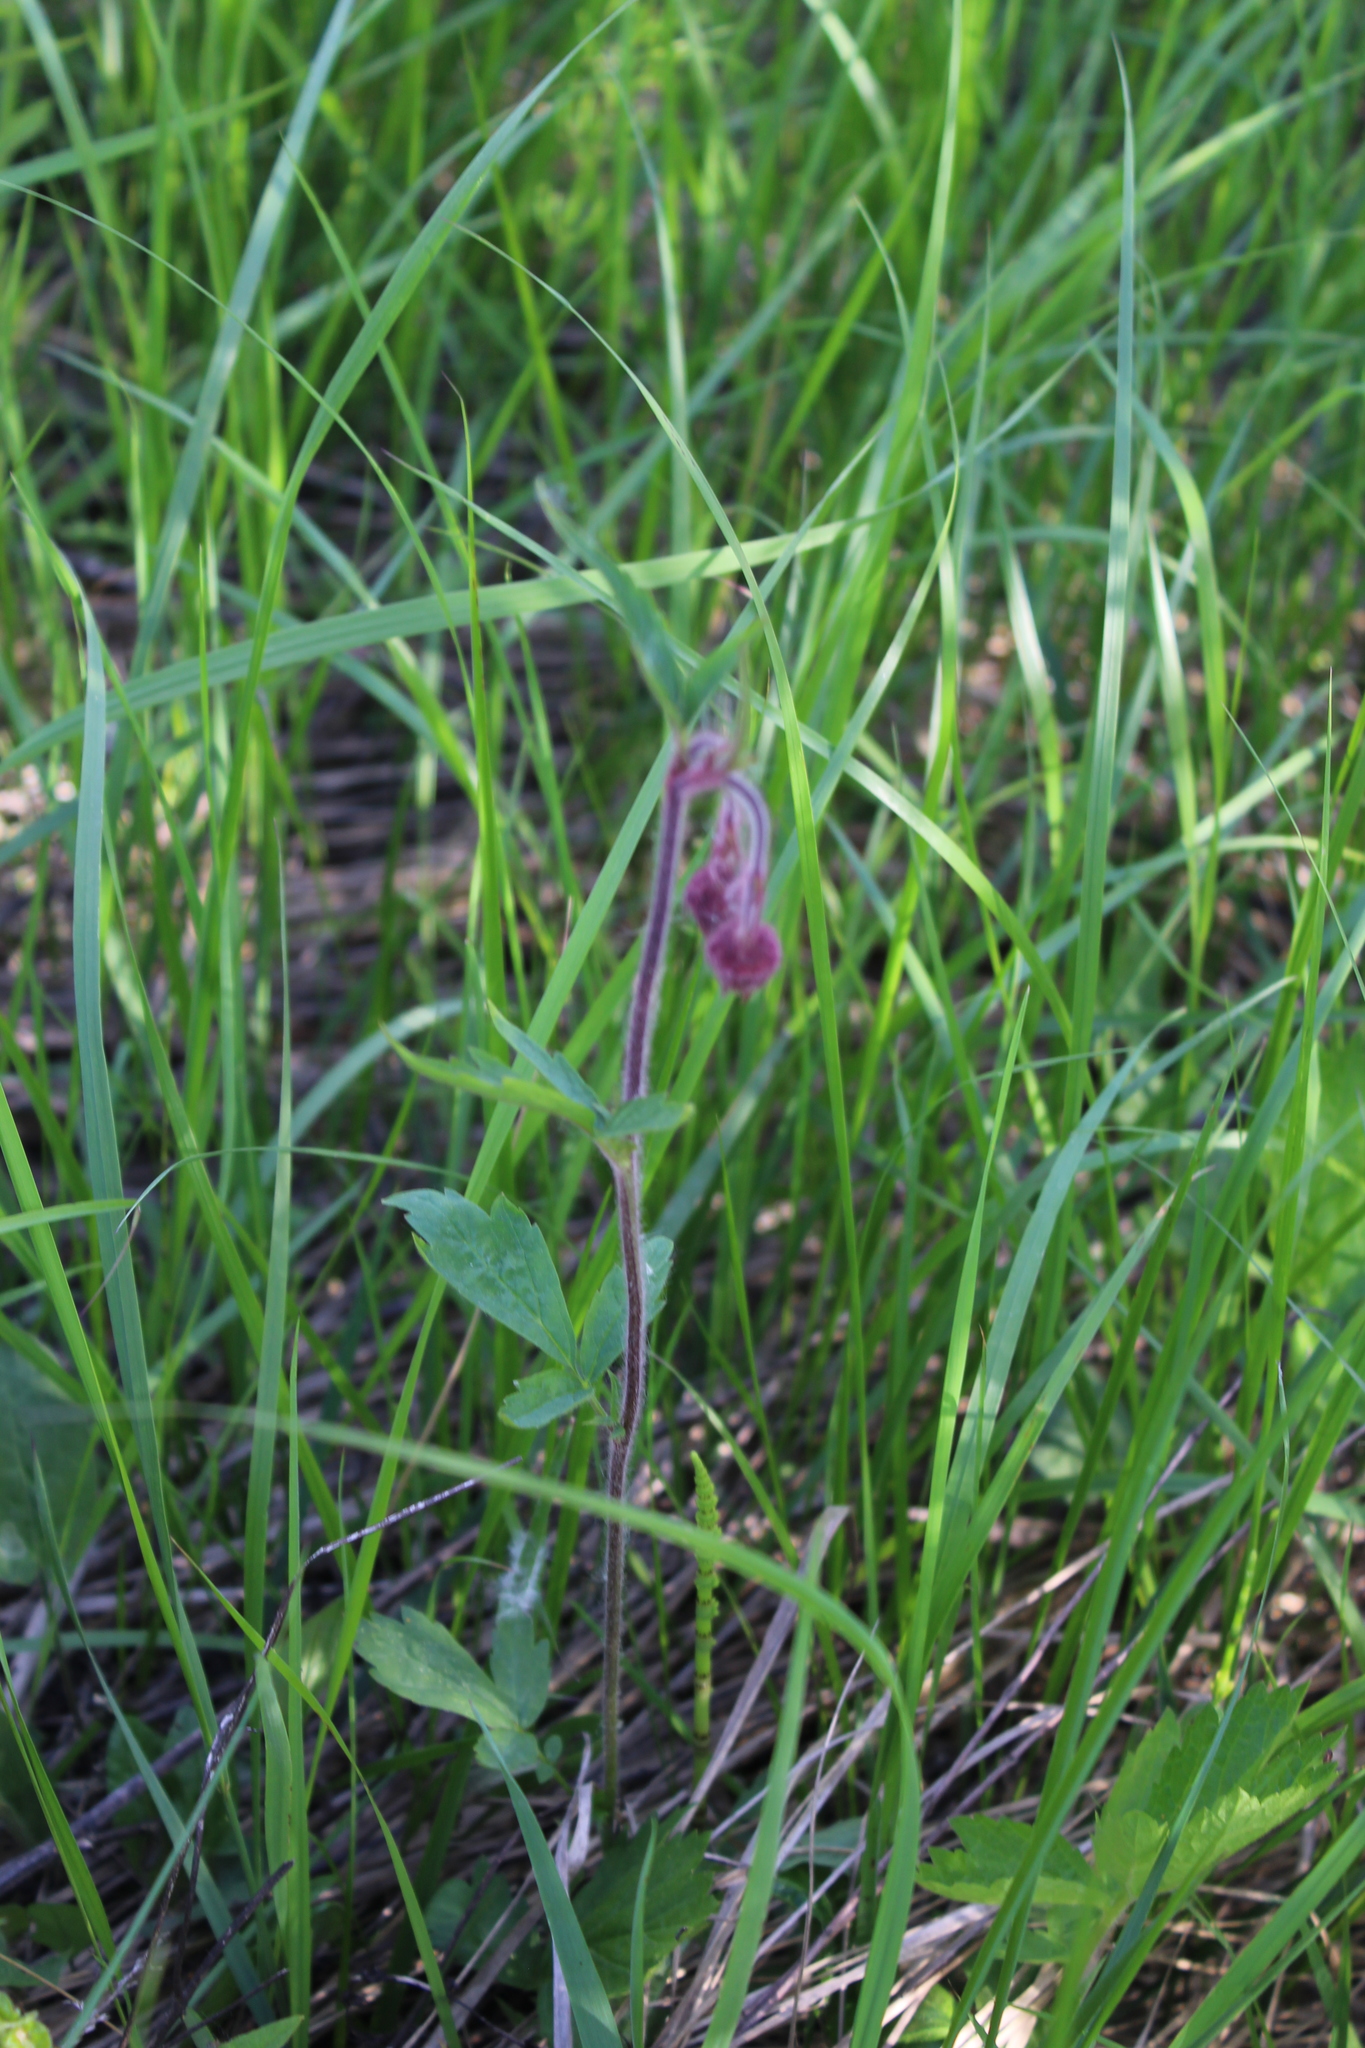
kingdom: Plantae
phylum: Tracheophyta
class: Magnoliopsida
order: Rosales
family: Rosaceae
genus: Geum
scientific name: Geum rivale
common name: Water avens
